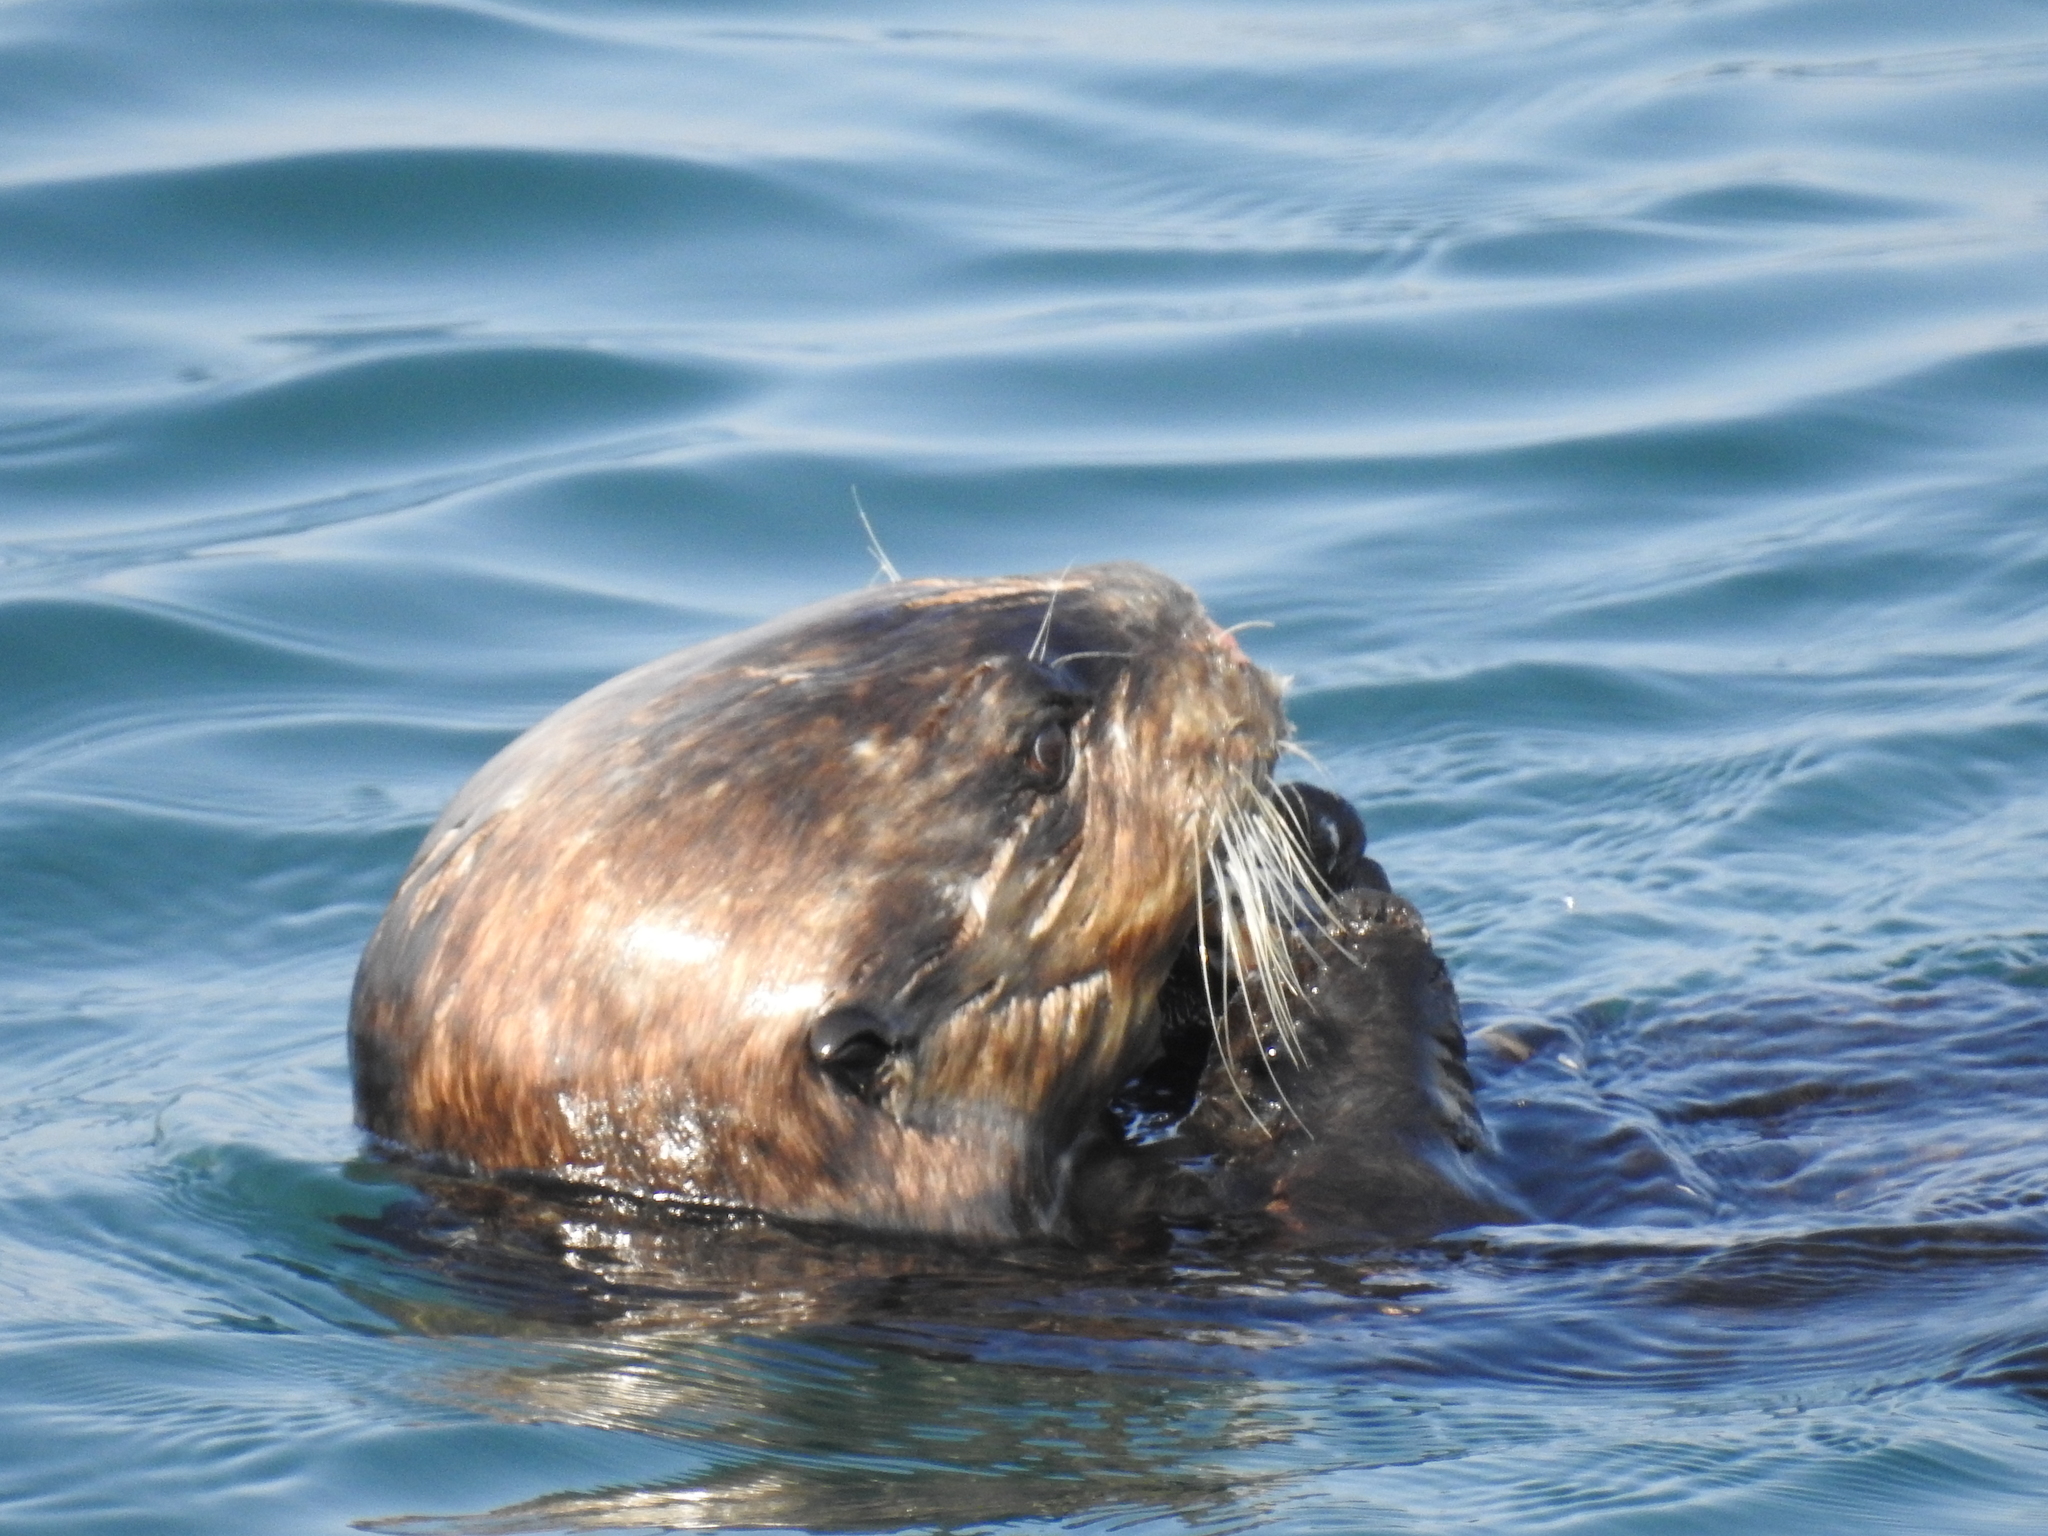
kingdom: Animalia
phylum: Chordata
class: Mammalia
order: Carnivora
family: Mustelidae
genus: Enhydra
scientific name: Enhydra lutris
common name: Sea otter
